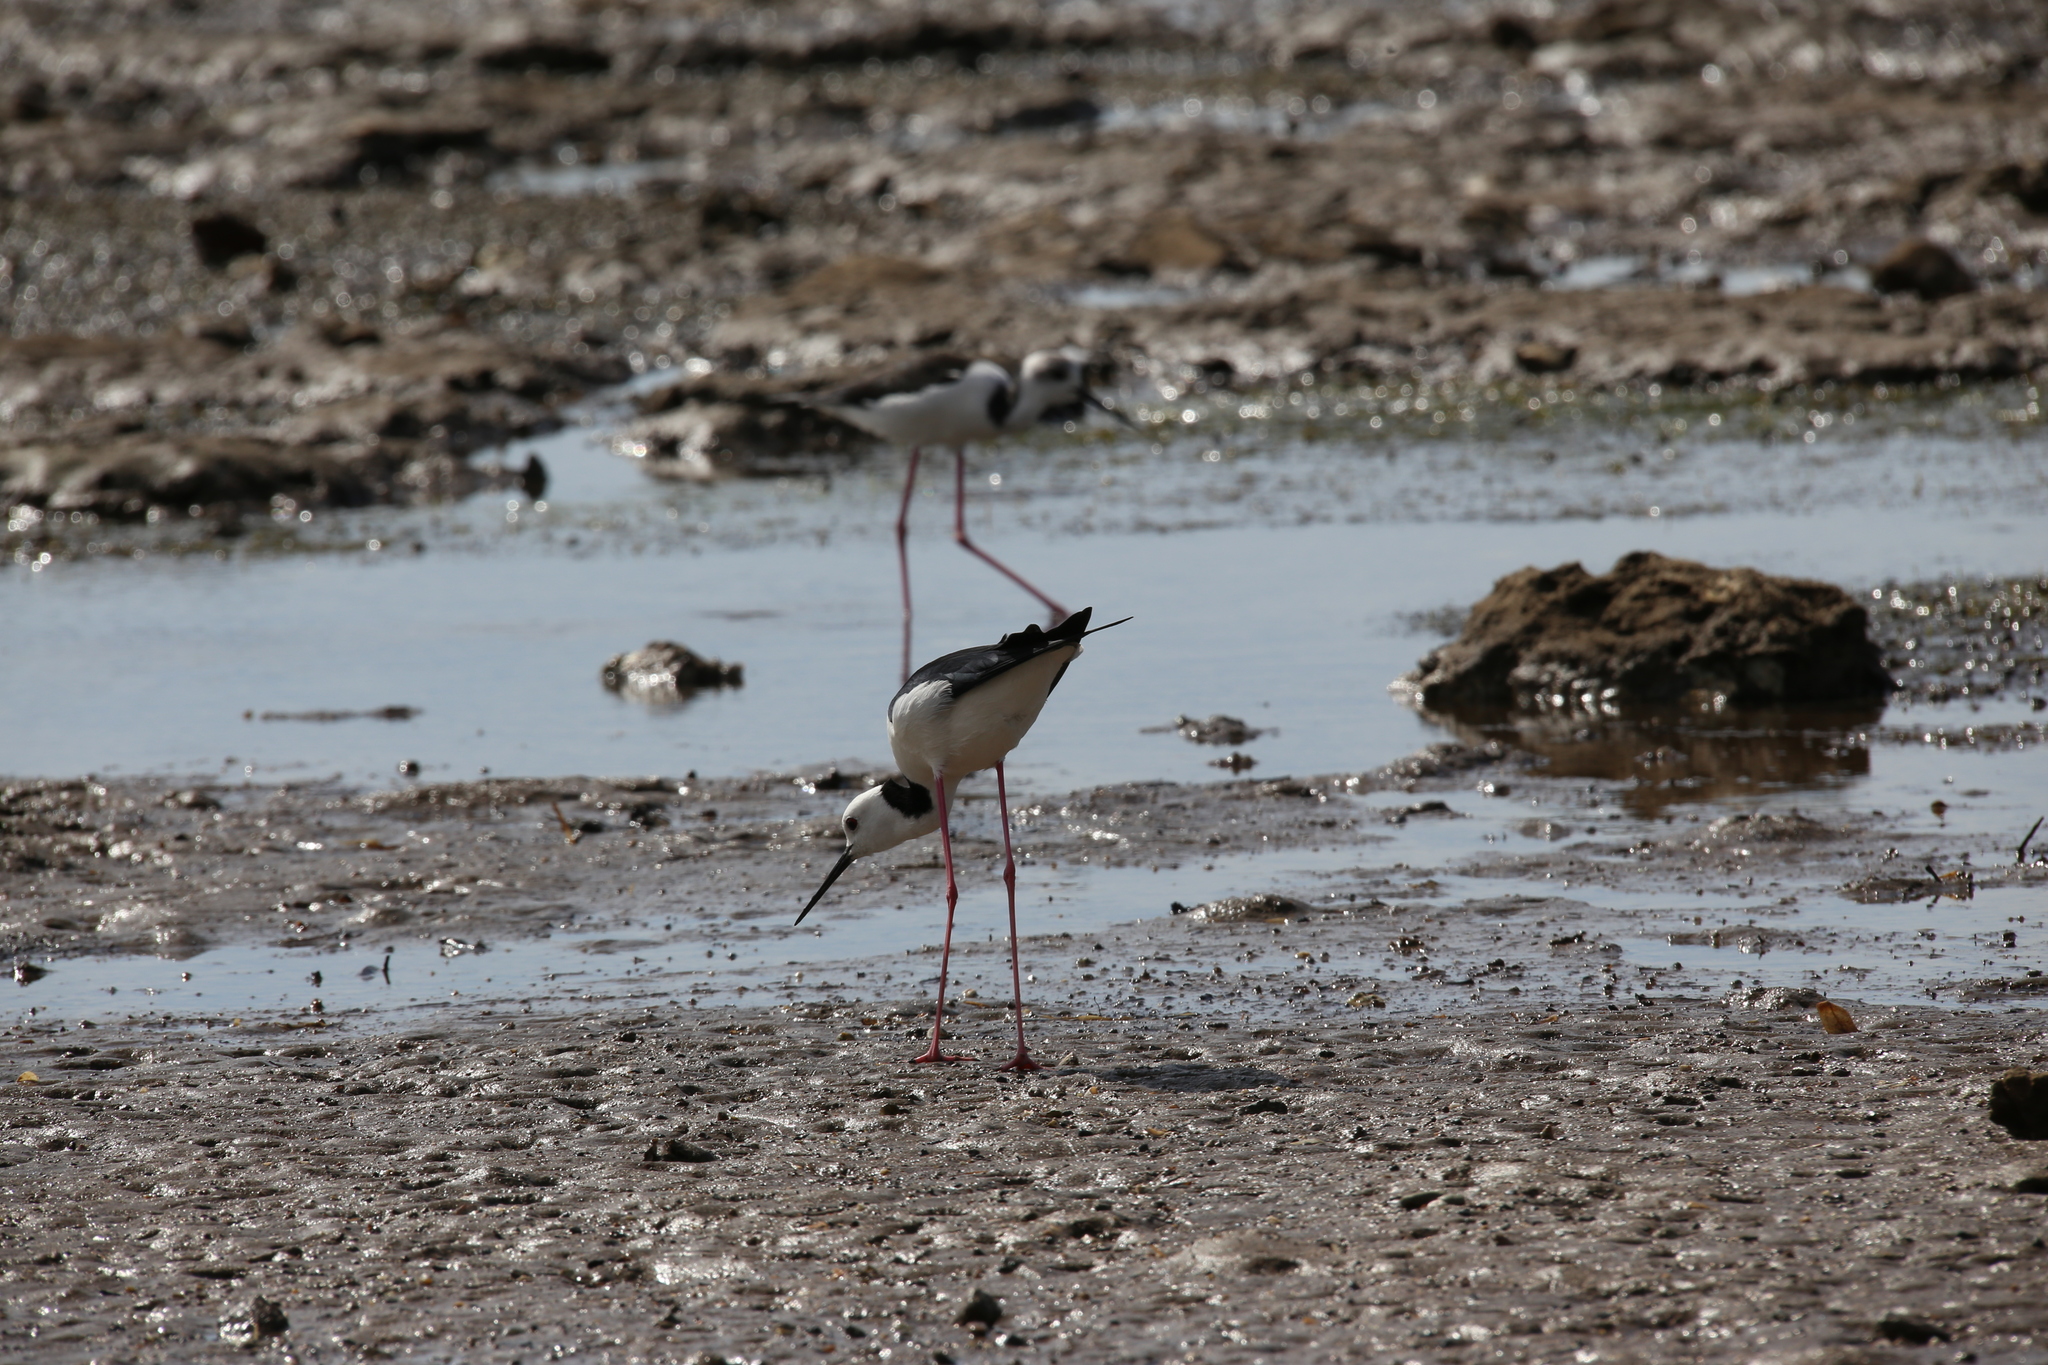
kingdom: Animalia
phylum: Chordata
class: Aves
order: Charadriiformes
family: Recurvirostridae
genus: Himantopus
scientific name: Himantopus leucocephalus
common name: White-headed stilt
